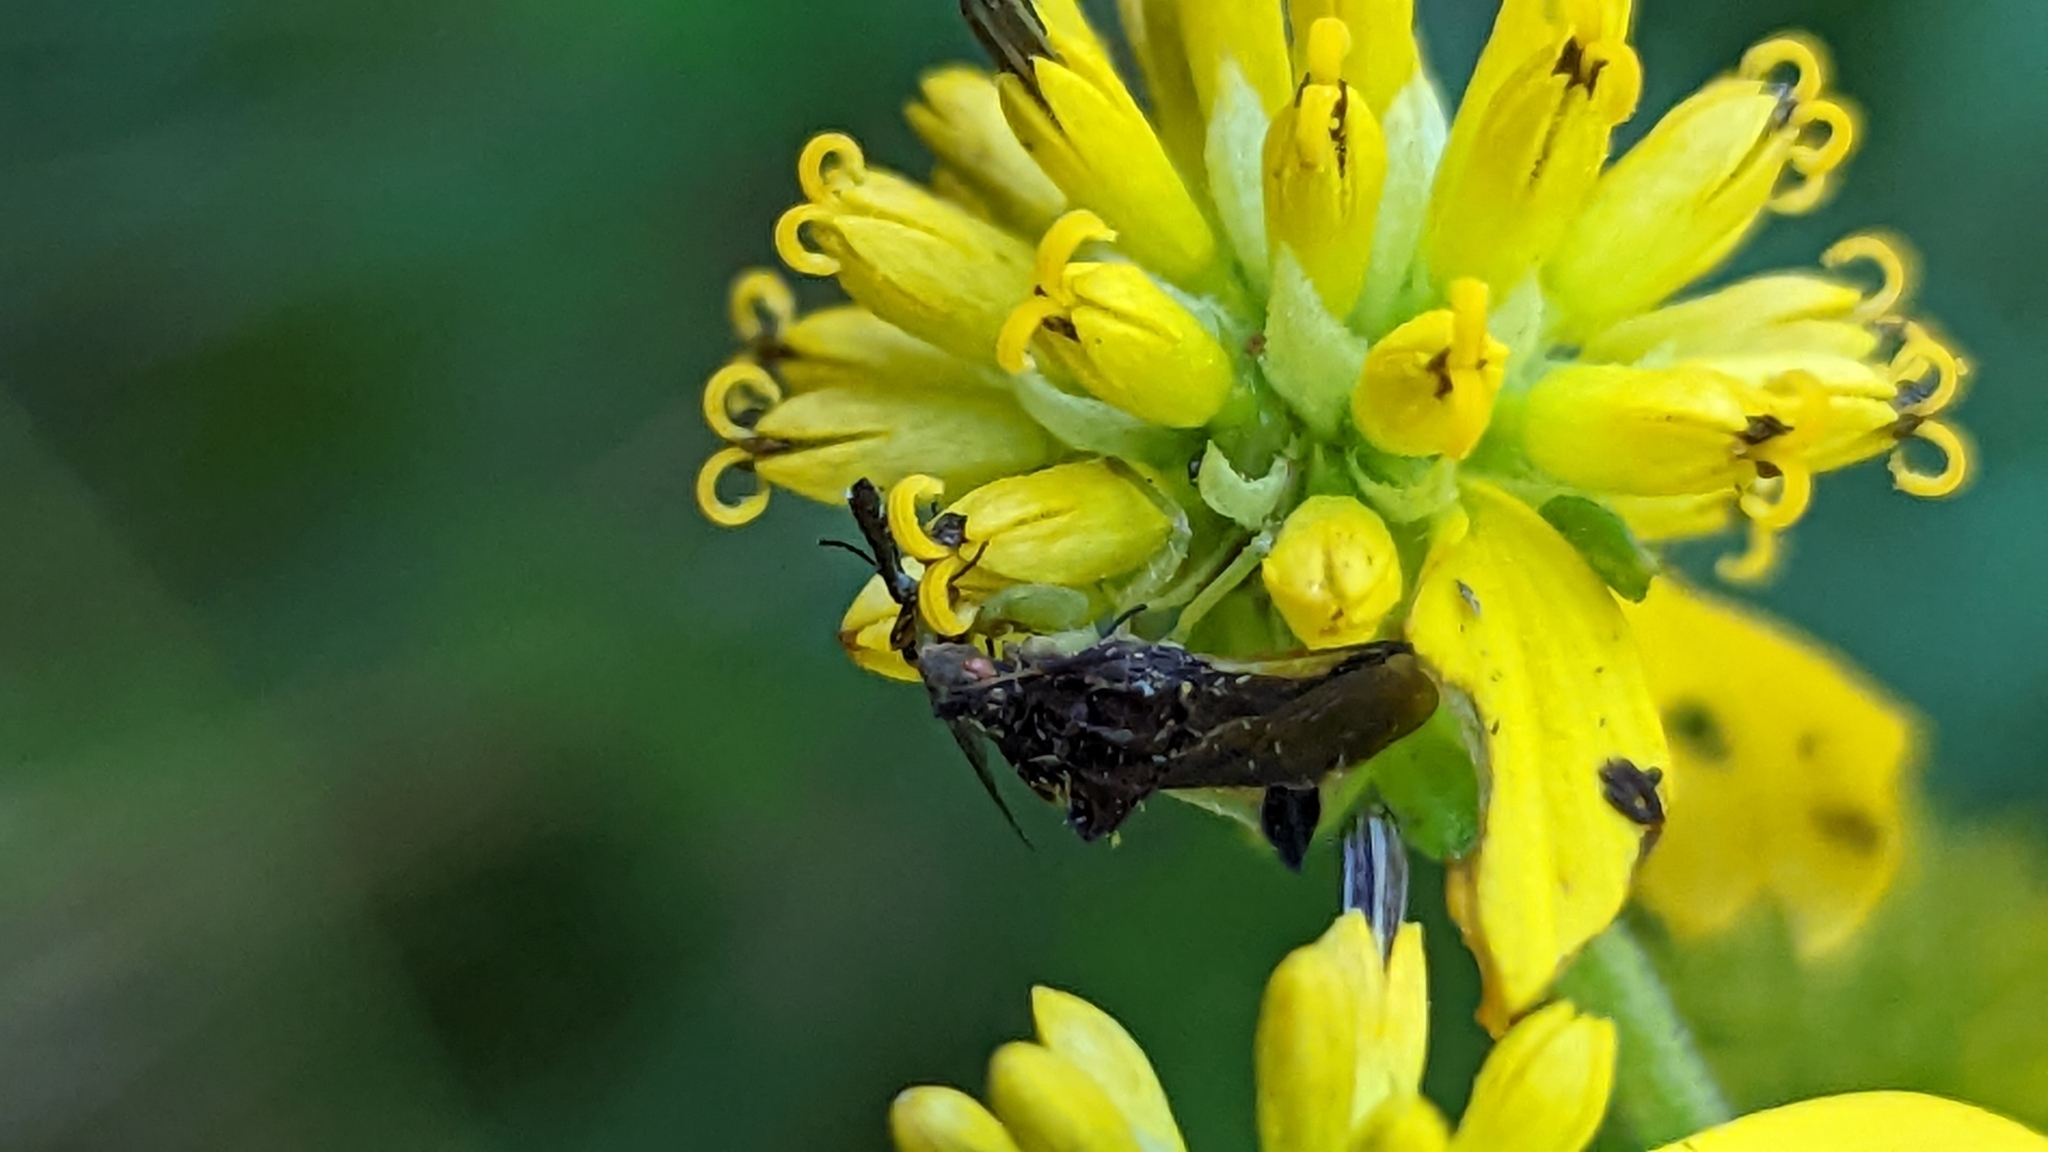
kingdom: Animalia
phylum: Arthropoda
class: Insecta
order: Hemiptera
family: Reduviidae
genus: Phymata
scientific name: Phymata pennsylvanica
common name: Pennsylvania ambush bug
